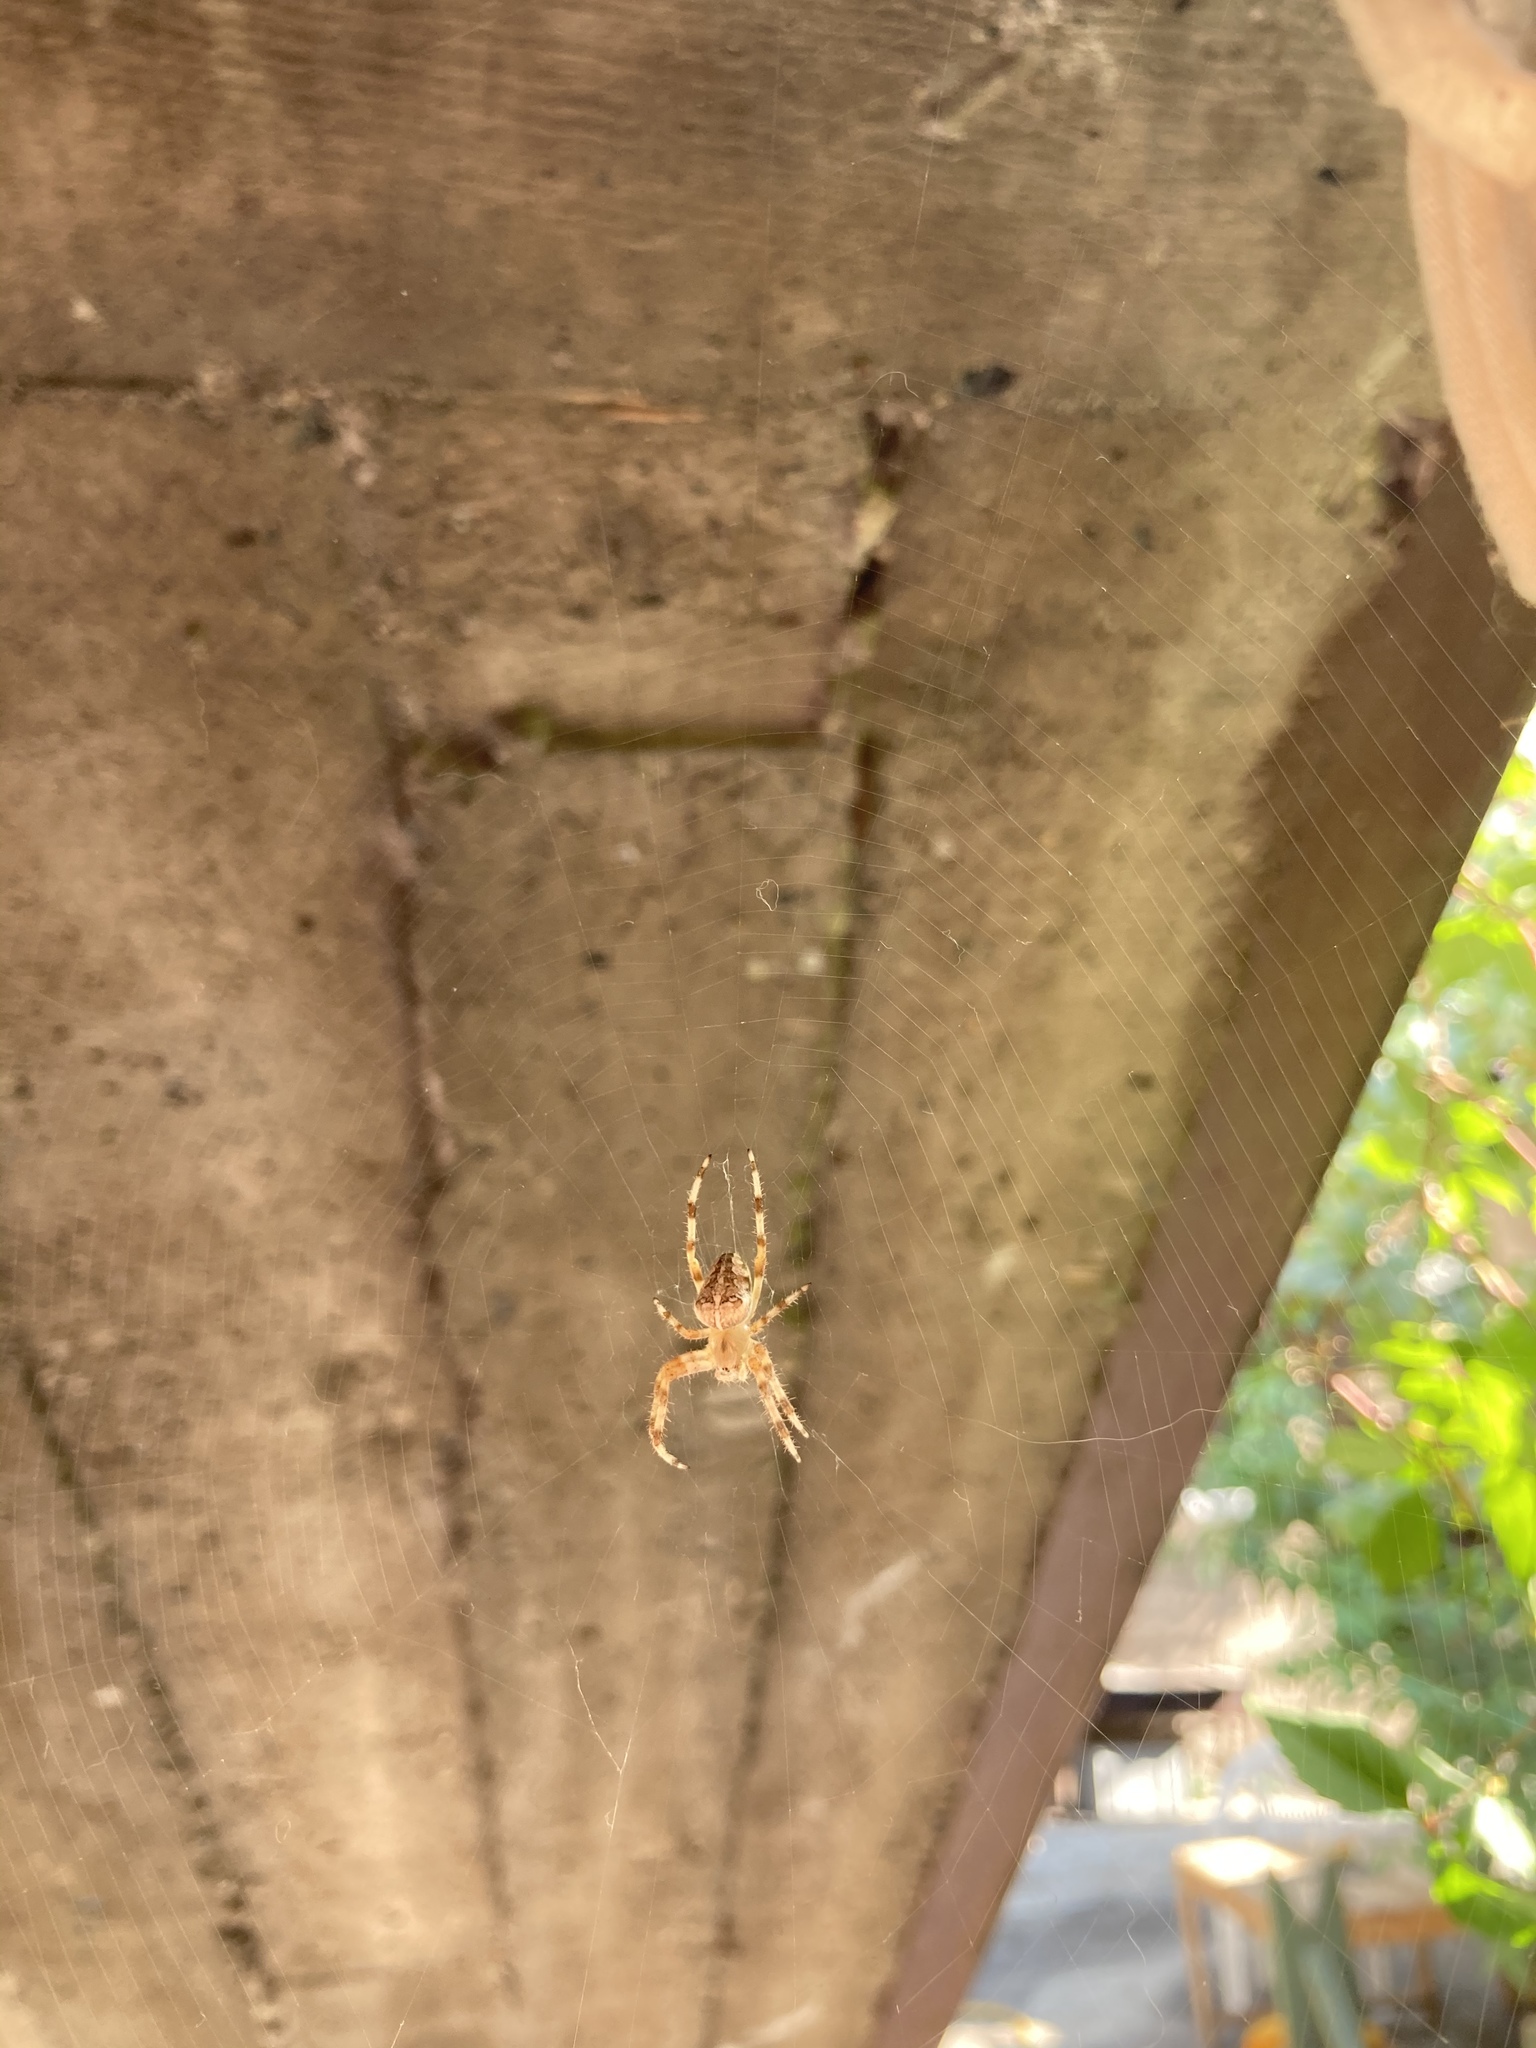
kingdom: Animalia
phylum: Arthropoda
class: Arachnida
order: Araneae
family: Araneidae
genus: Araneus
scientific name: Araneus diadematus
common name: Cross orbweaver
